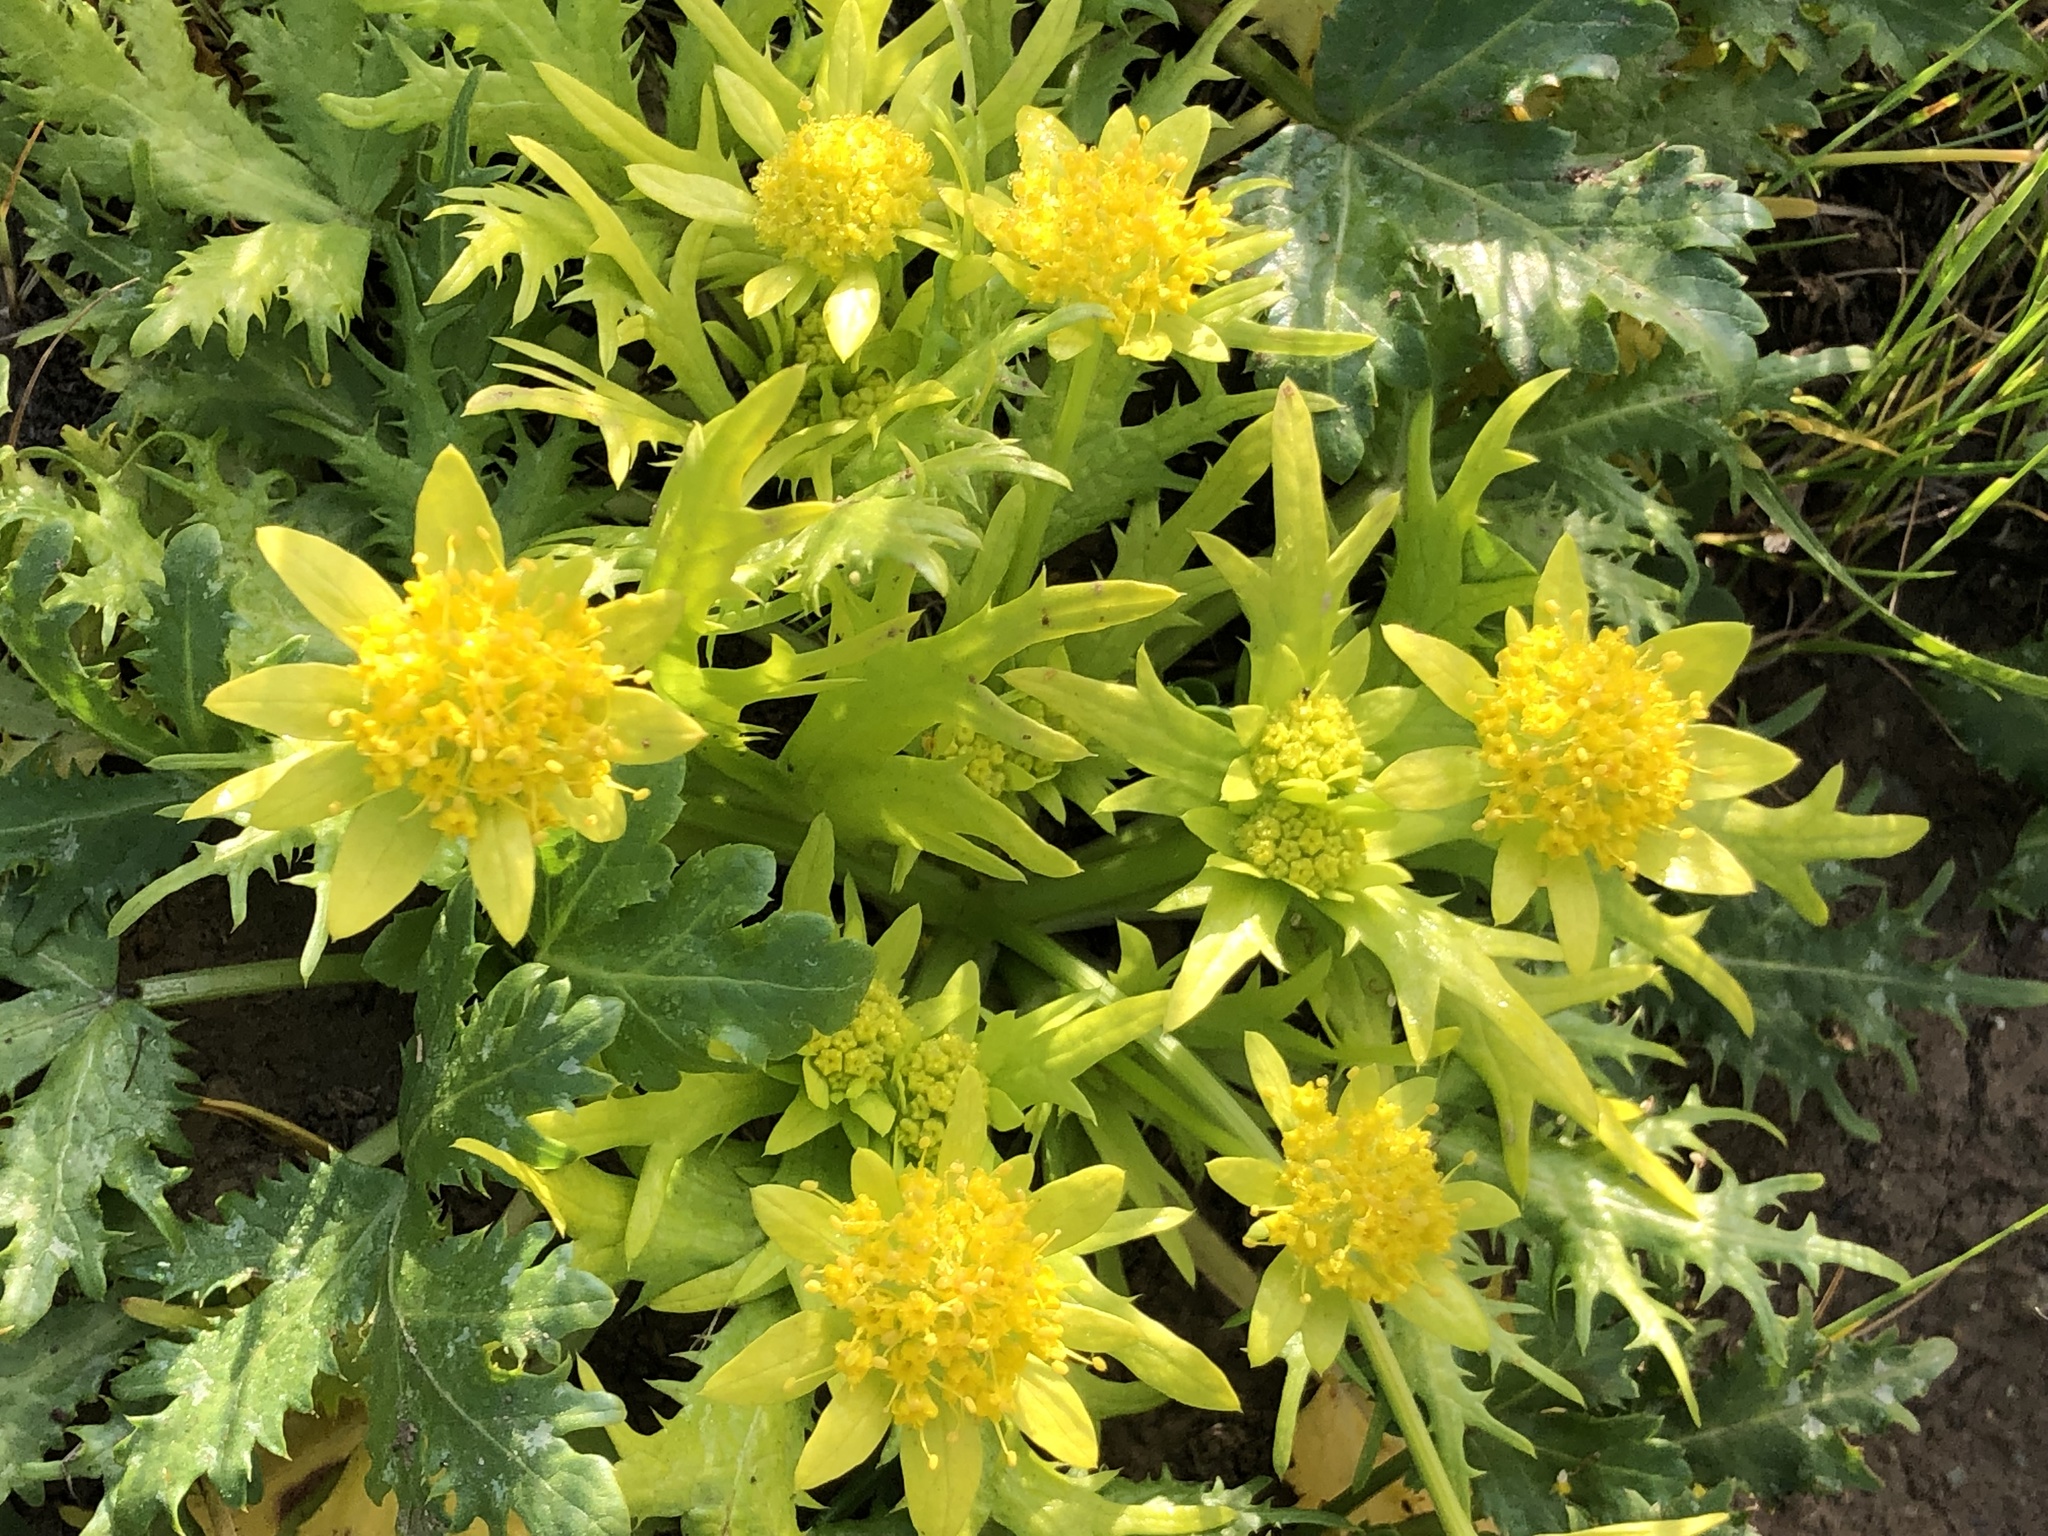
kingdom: Plantae
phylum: Tracheophyta
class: Magnoliopsida
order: Apiales
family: Apiaceae
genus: Sanicula
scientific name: Sanicula arctopoides
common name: Footsteps-of-spring
